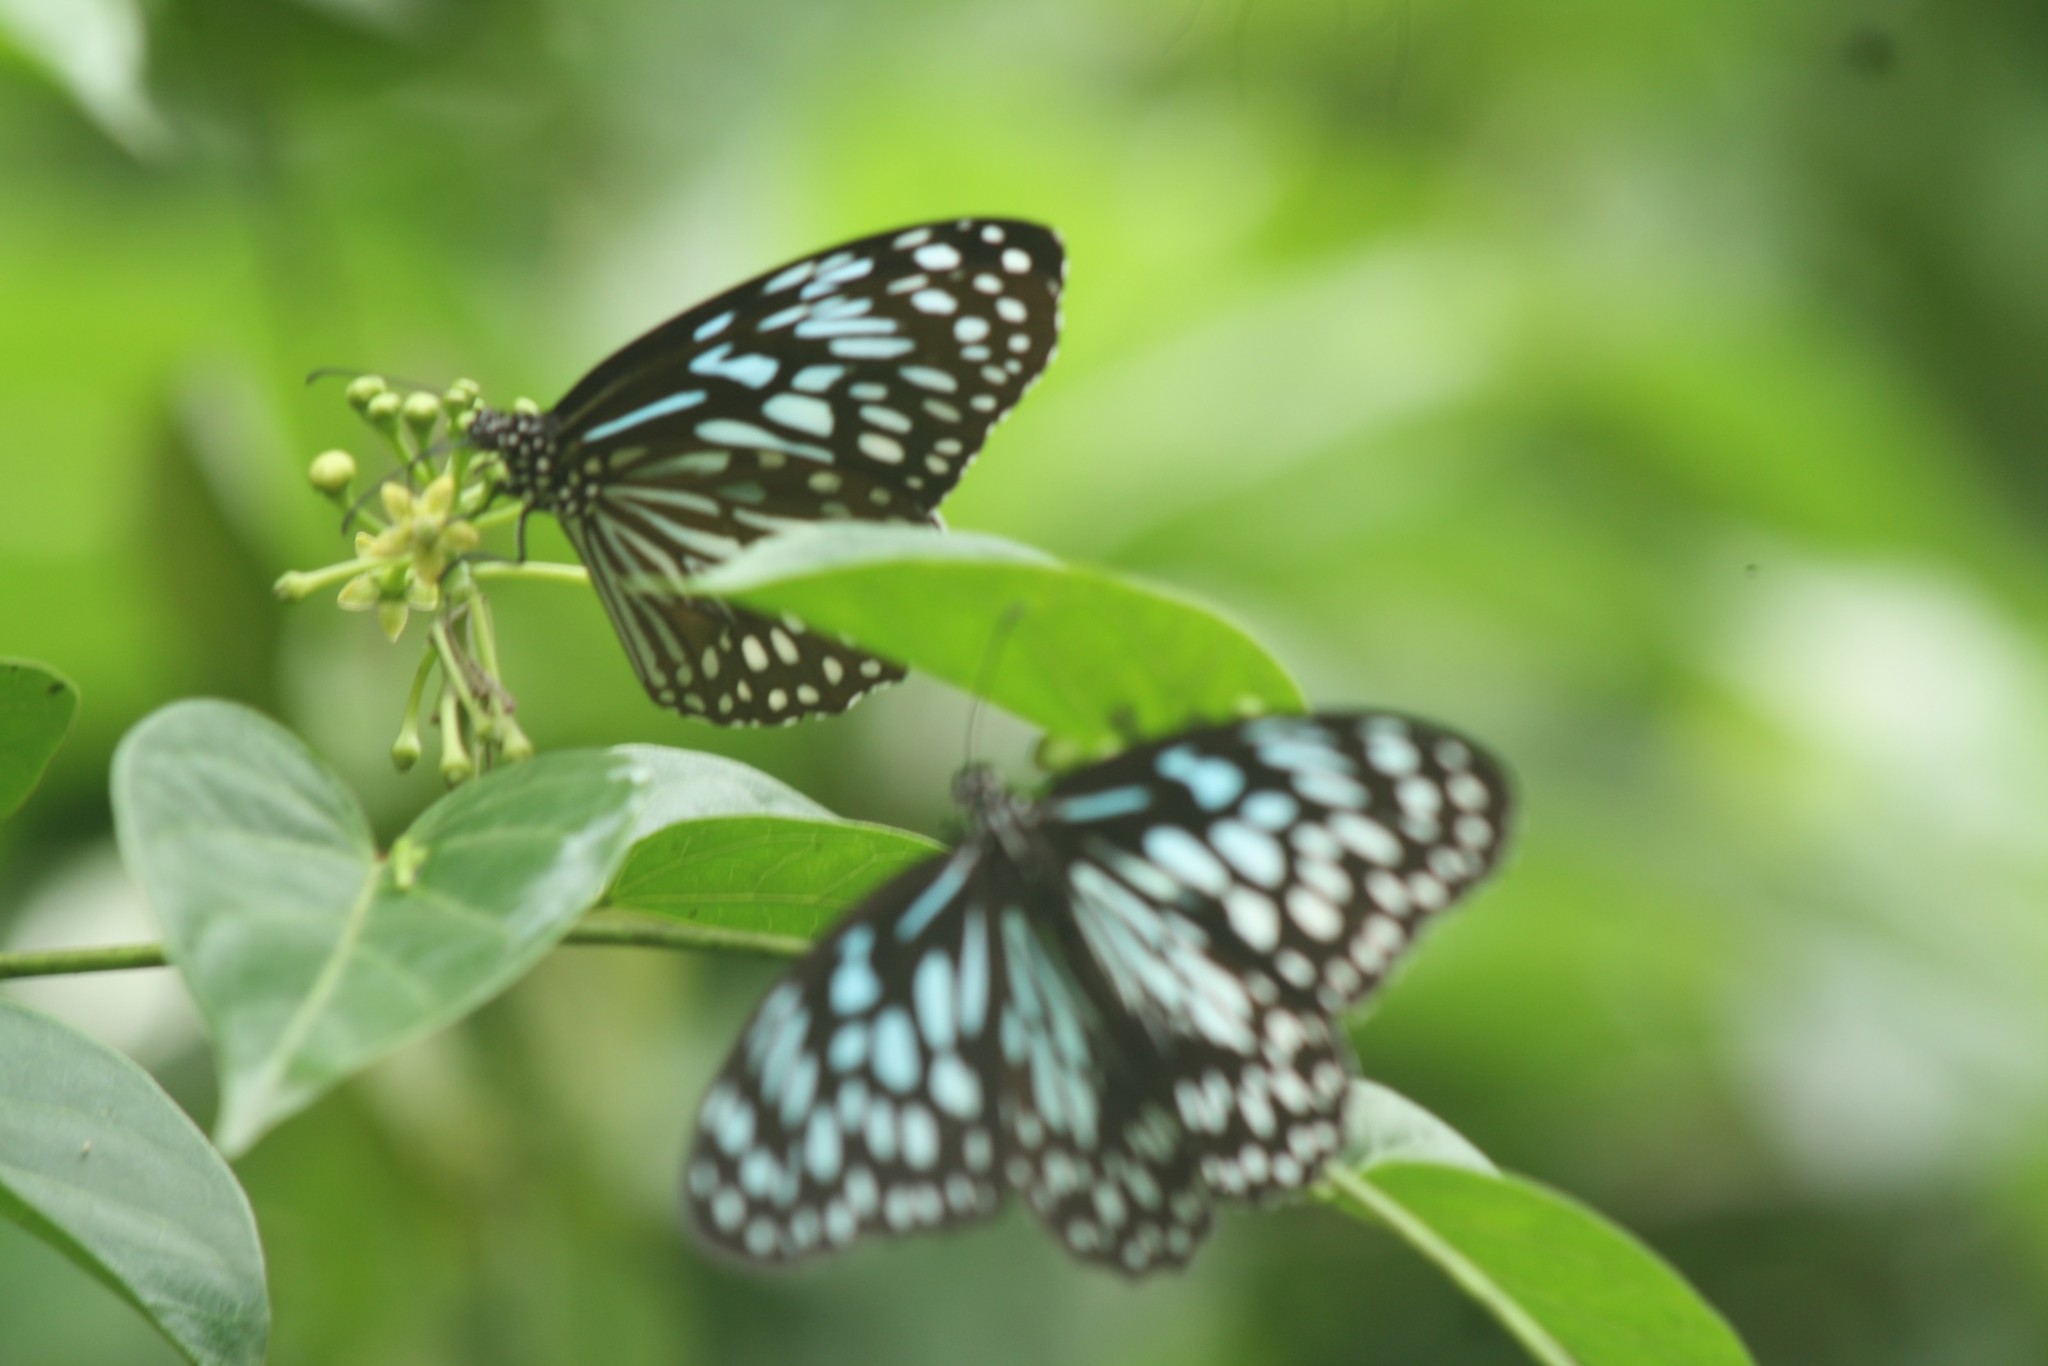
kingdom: Animalia
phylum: Arthropoda
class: Insecta
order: Lepidoptera
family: Nymphalidae
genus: Tirumala
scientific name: Tirumala limniace
